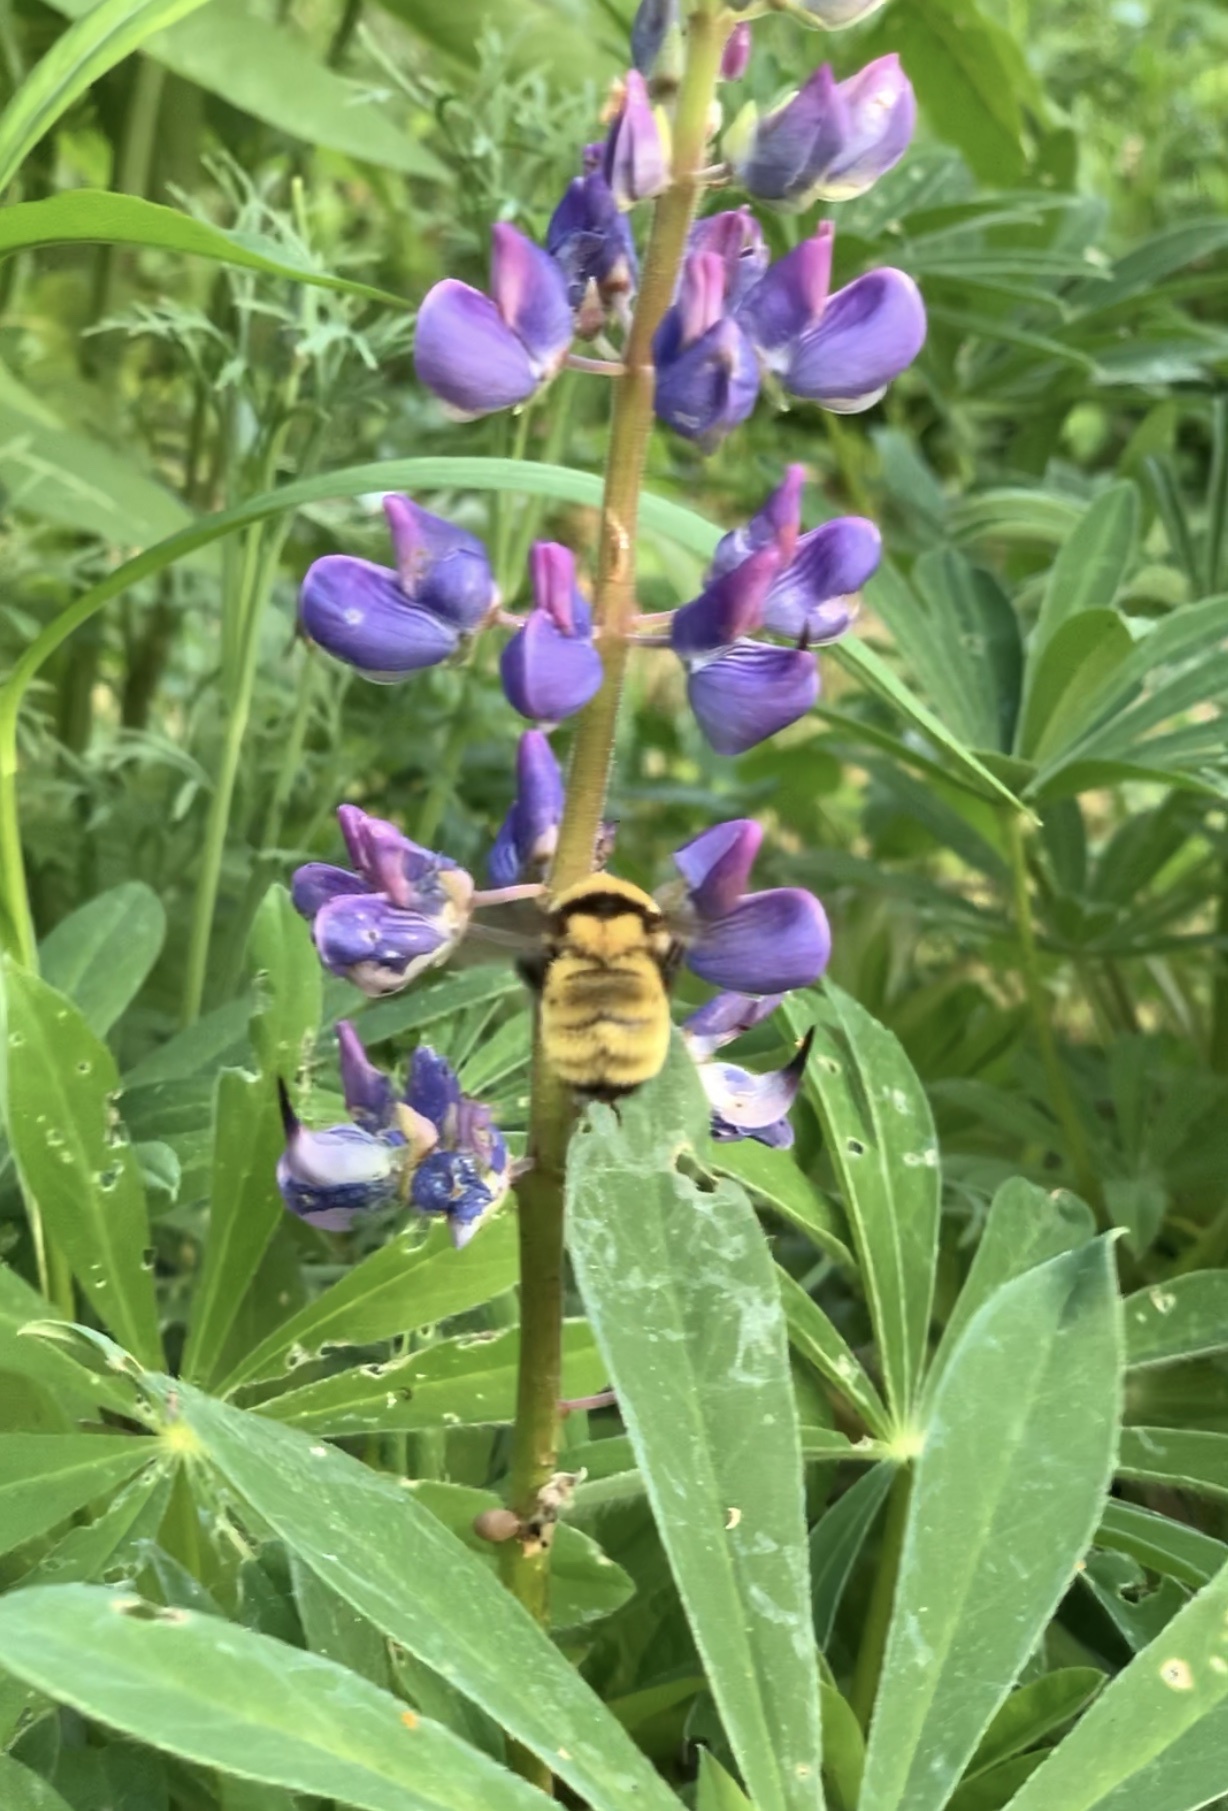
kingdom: Animalia
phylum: Arthropoda
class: Insecta
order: Hymenoptera
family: Apidae
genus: Bombus
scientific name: Bombus fervidus
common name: Yellow bumble bee
